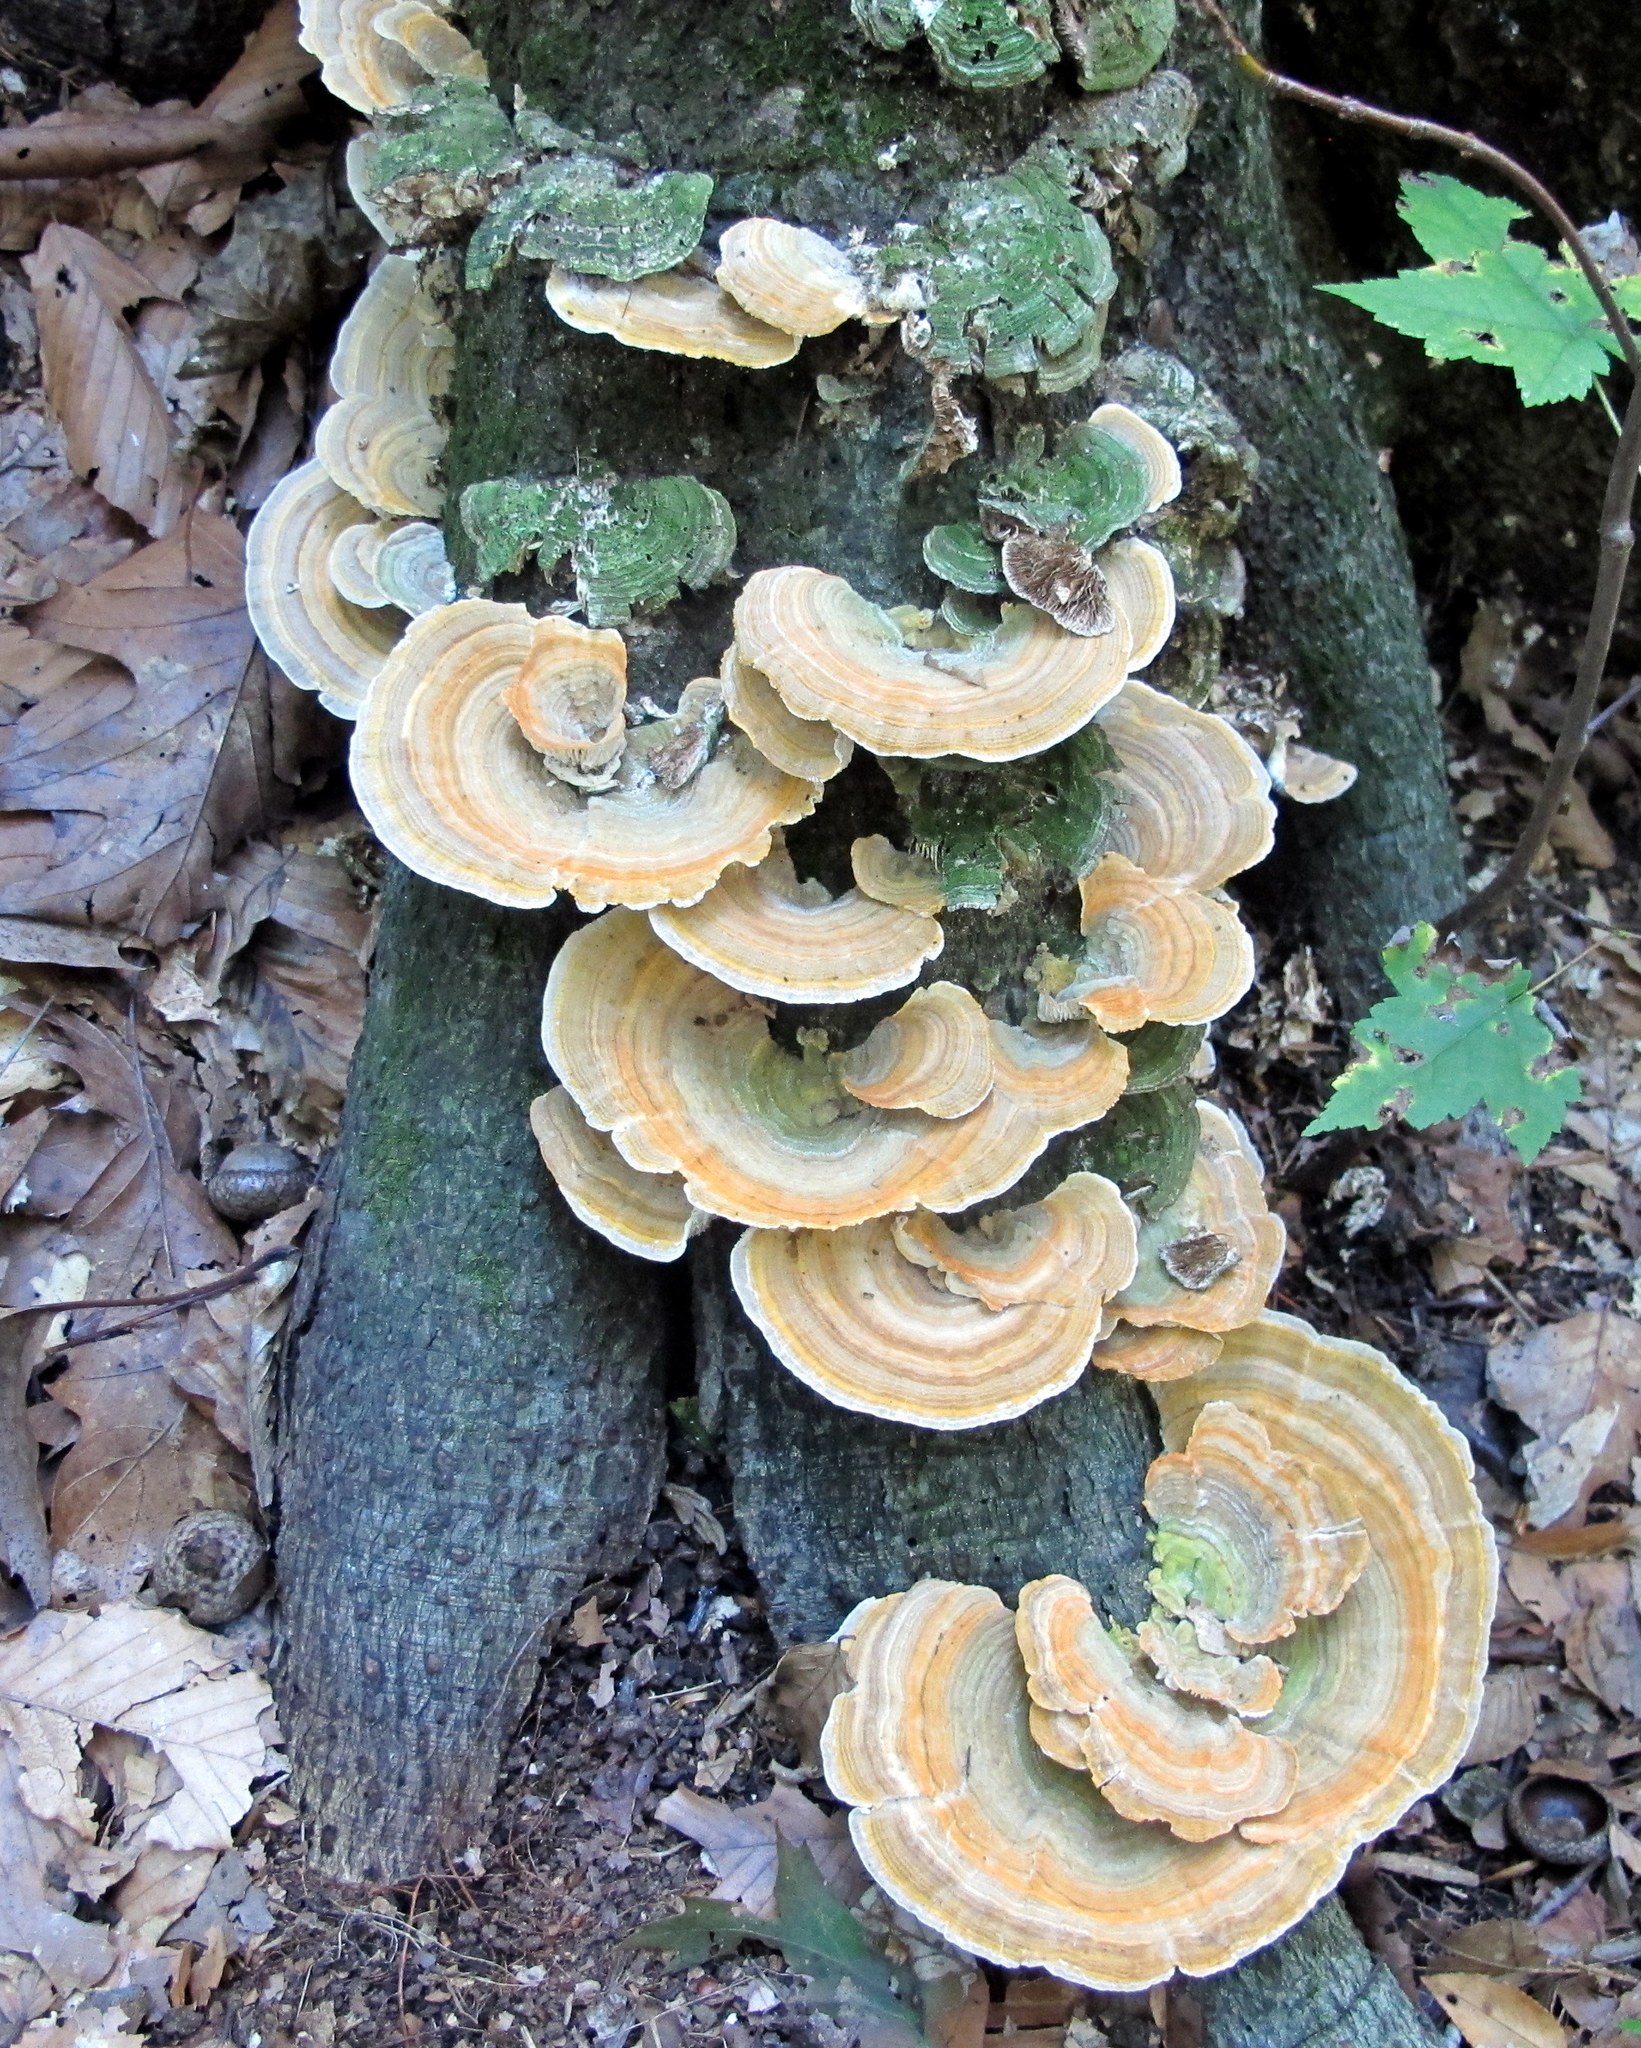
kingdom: Fungi
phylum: Basidiomycota
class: Agaricomycetes
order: Polyporales
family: Polyporaceae
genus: Lenzites
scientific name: Lenzites betulinus
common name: Birch mazegill
